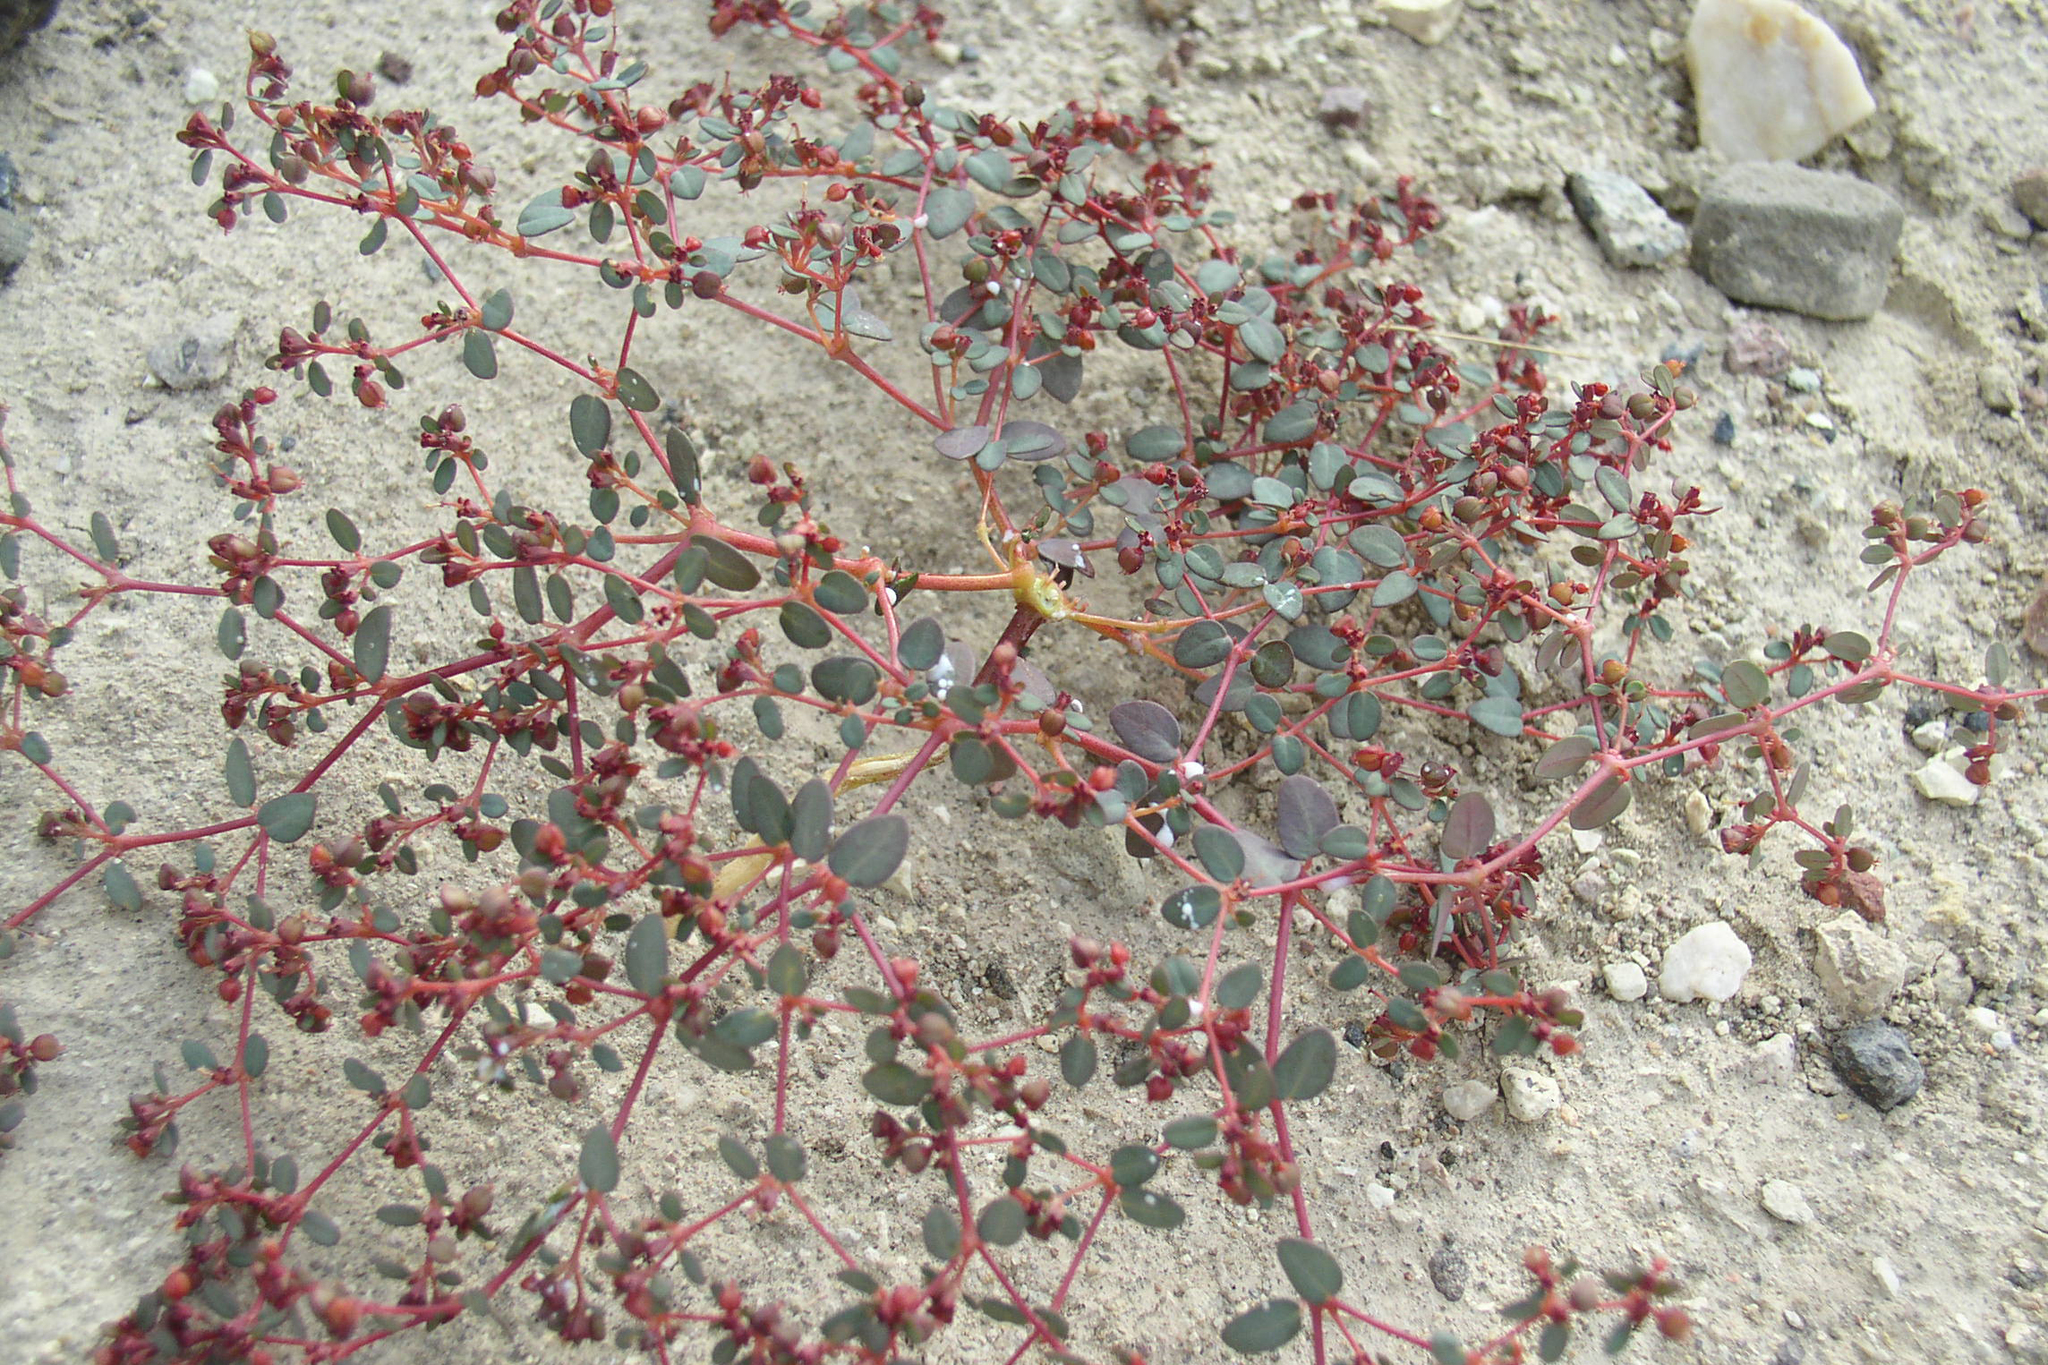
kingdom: Plantae
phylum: Tracheophyta
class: Magnoliopsida
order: Malpighiales
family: Euphorbiaceae
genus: Euphorbia
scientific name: Euphorbia parishii
